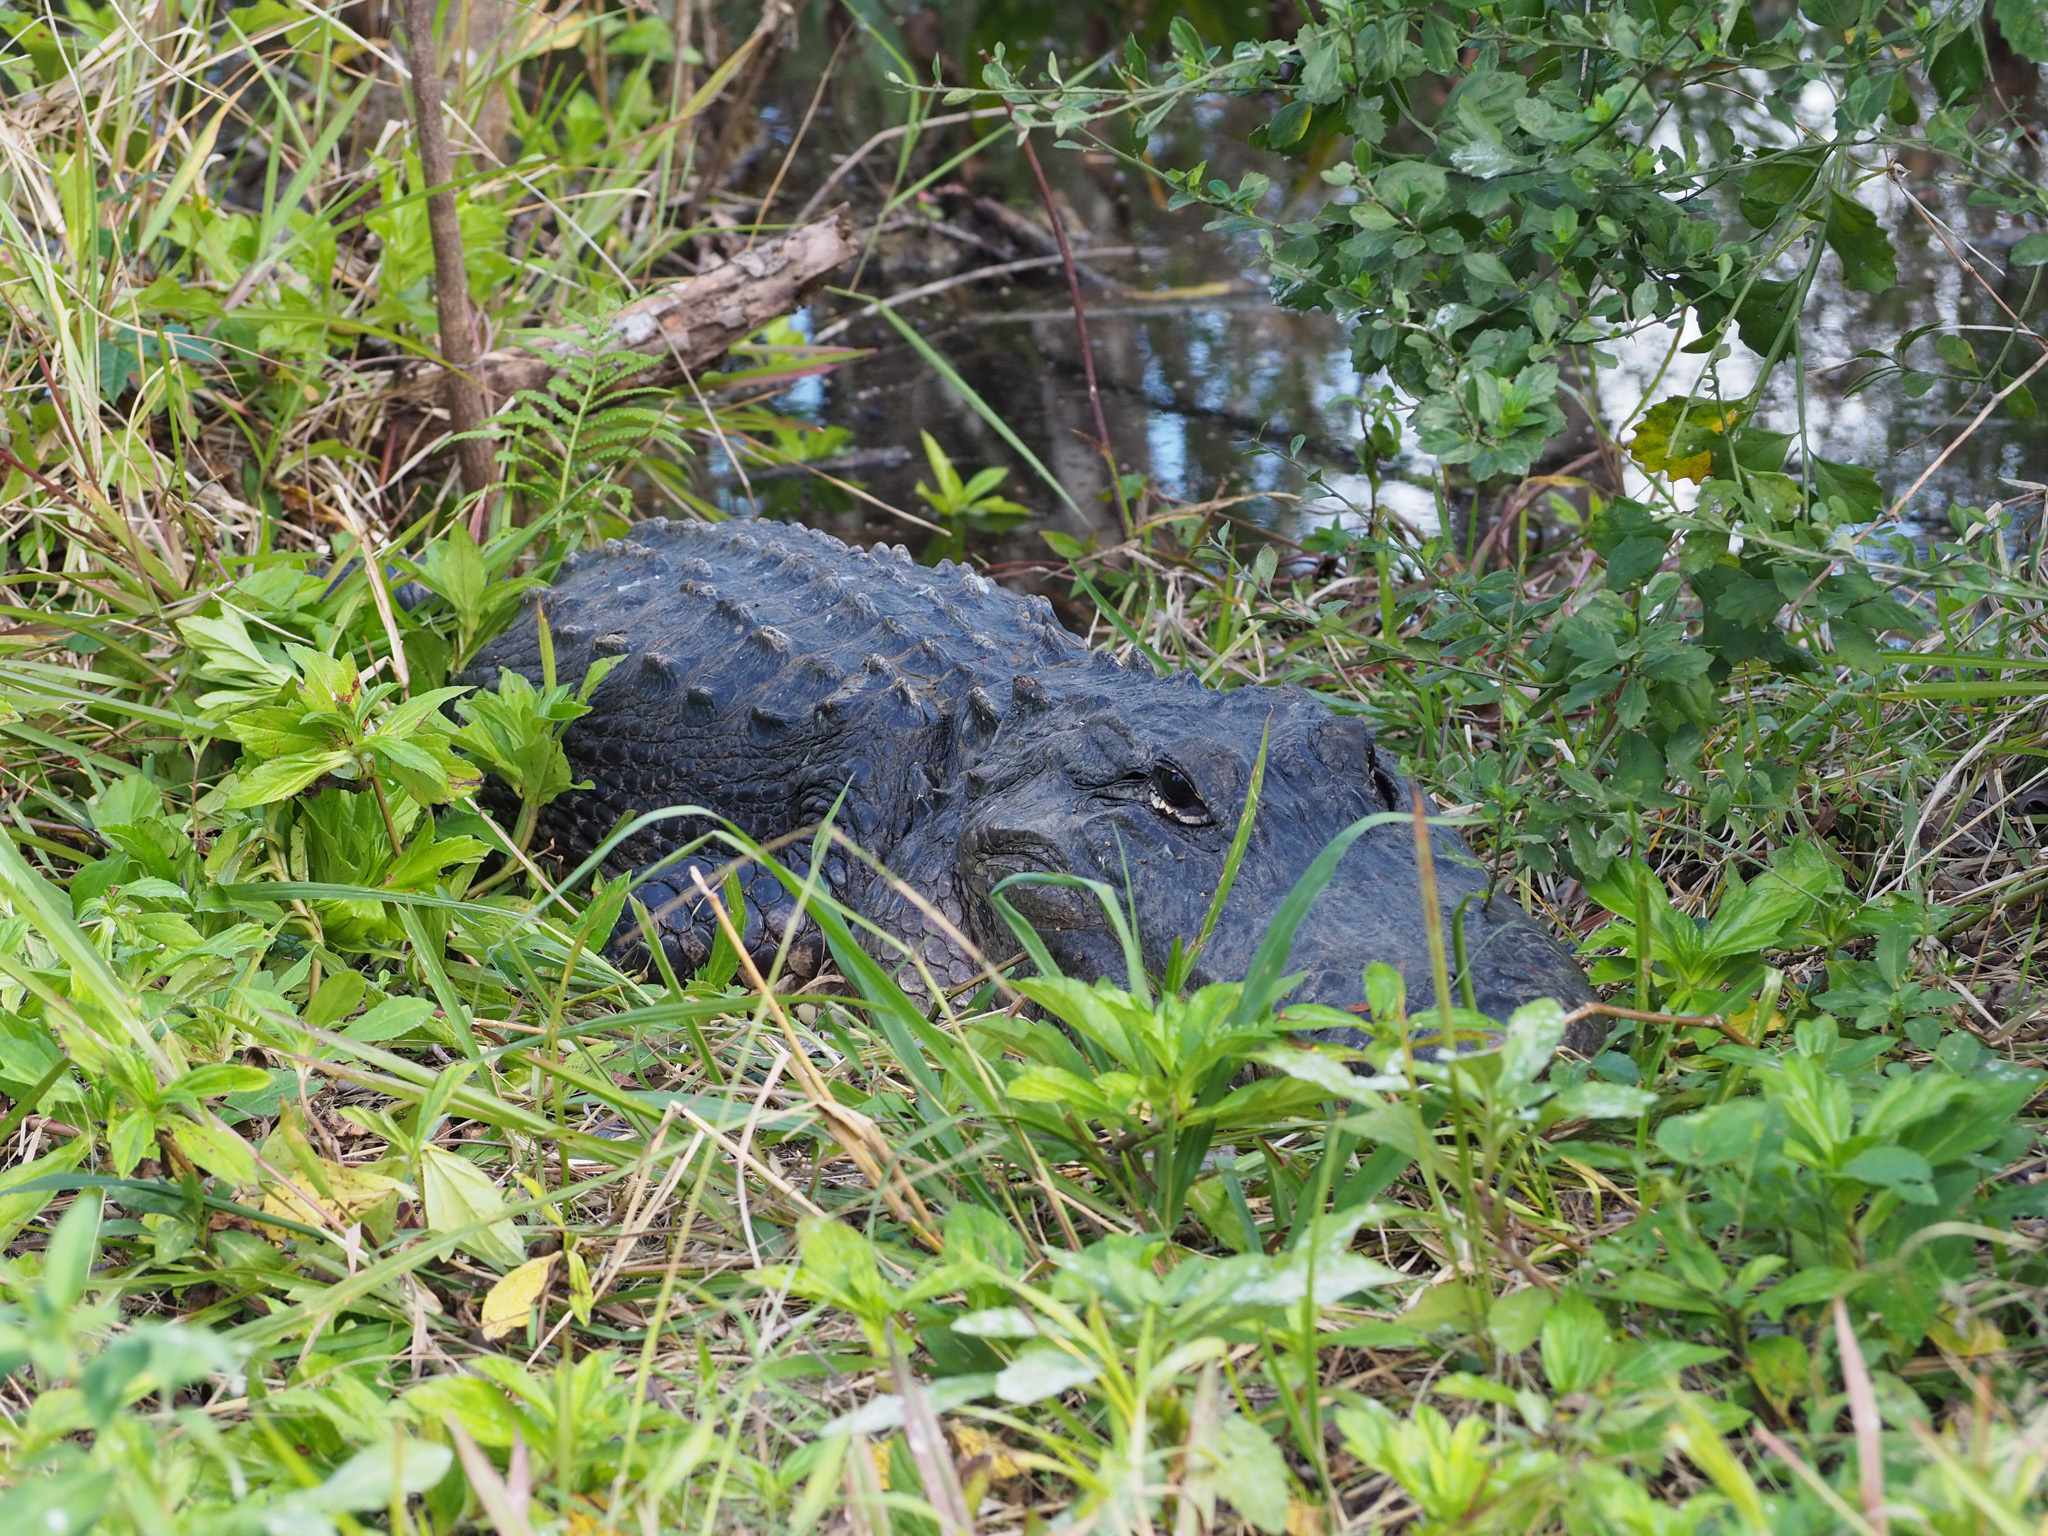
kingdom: Animalia
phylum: Chordata
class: Crocodylia
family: Alligatoridae
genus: Alligator
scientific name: Alligator mississippiensis
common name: American alligator
